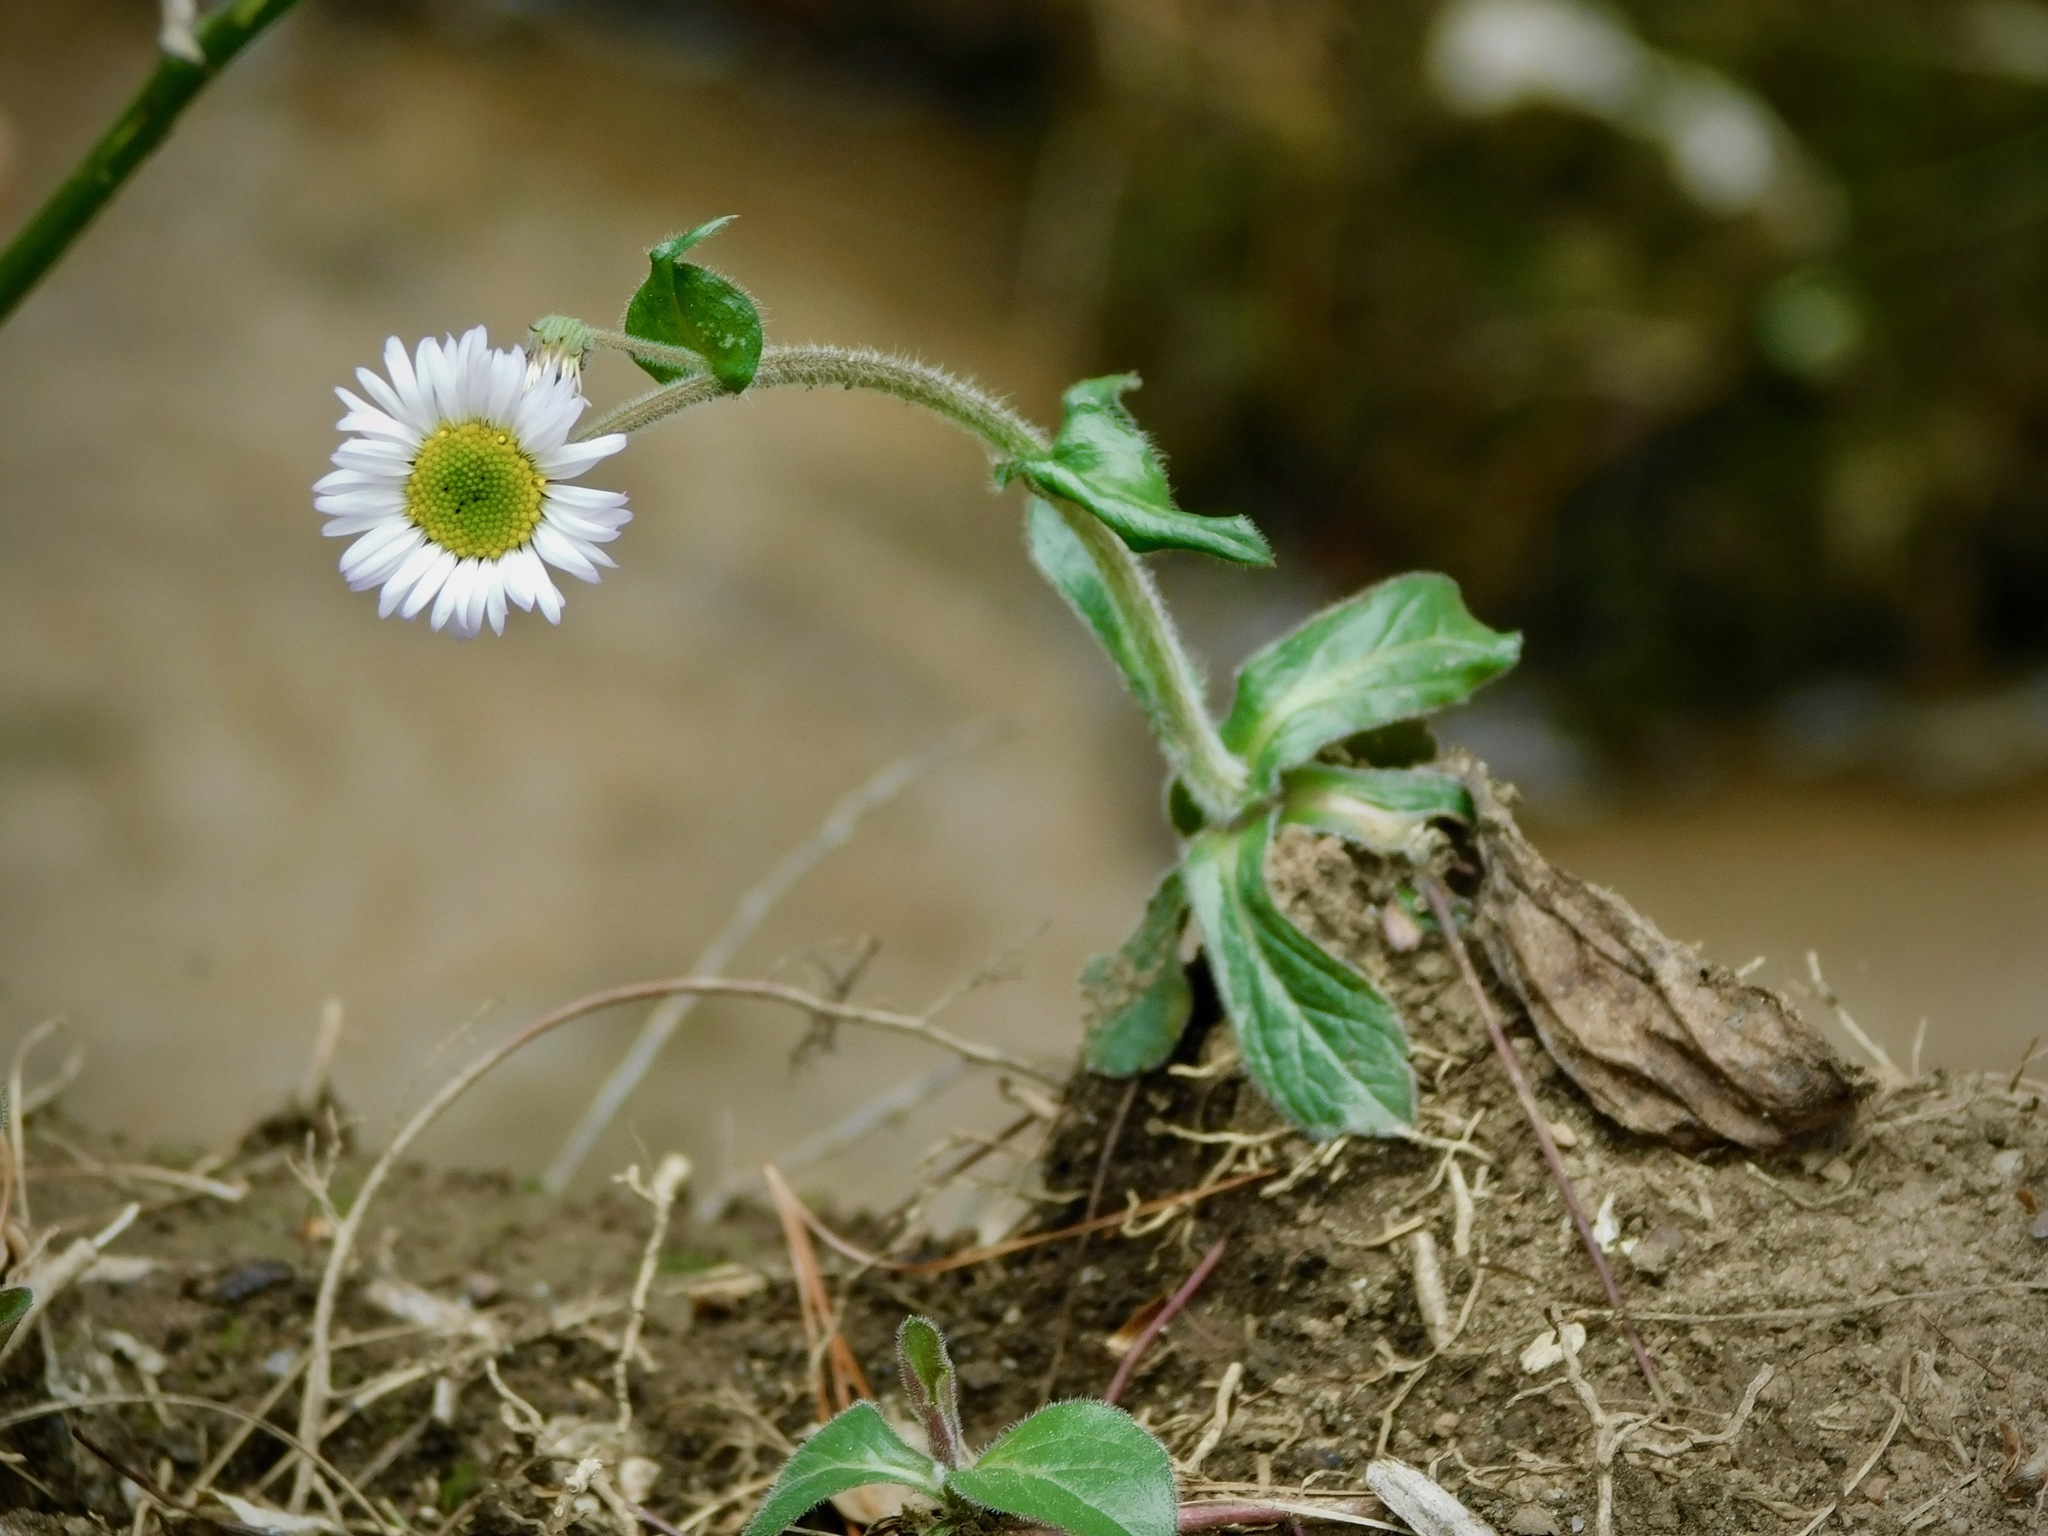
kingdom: Plantae
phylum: Tracheophyta
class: Magnoliopsida
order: Asterales
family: Asteraceae
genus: Erigeron
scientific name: Erigeron pulchellus
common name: Hairy fleabane
